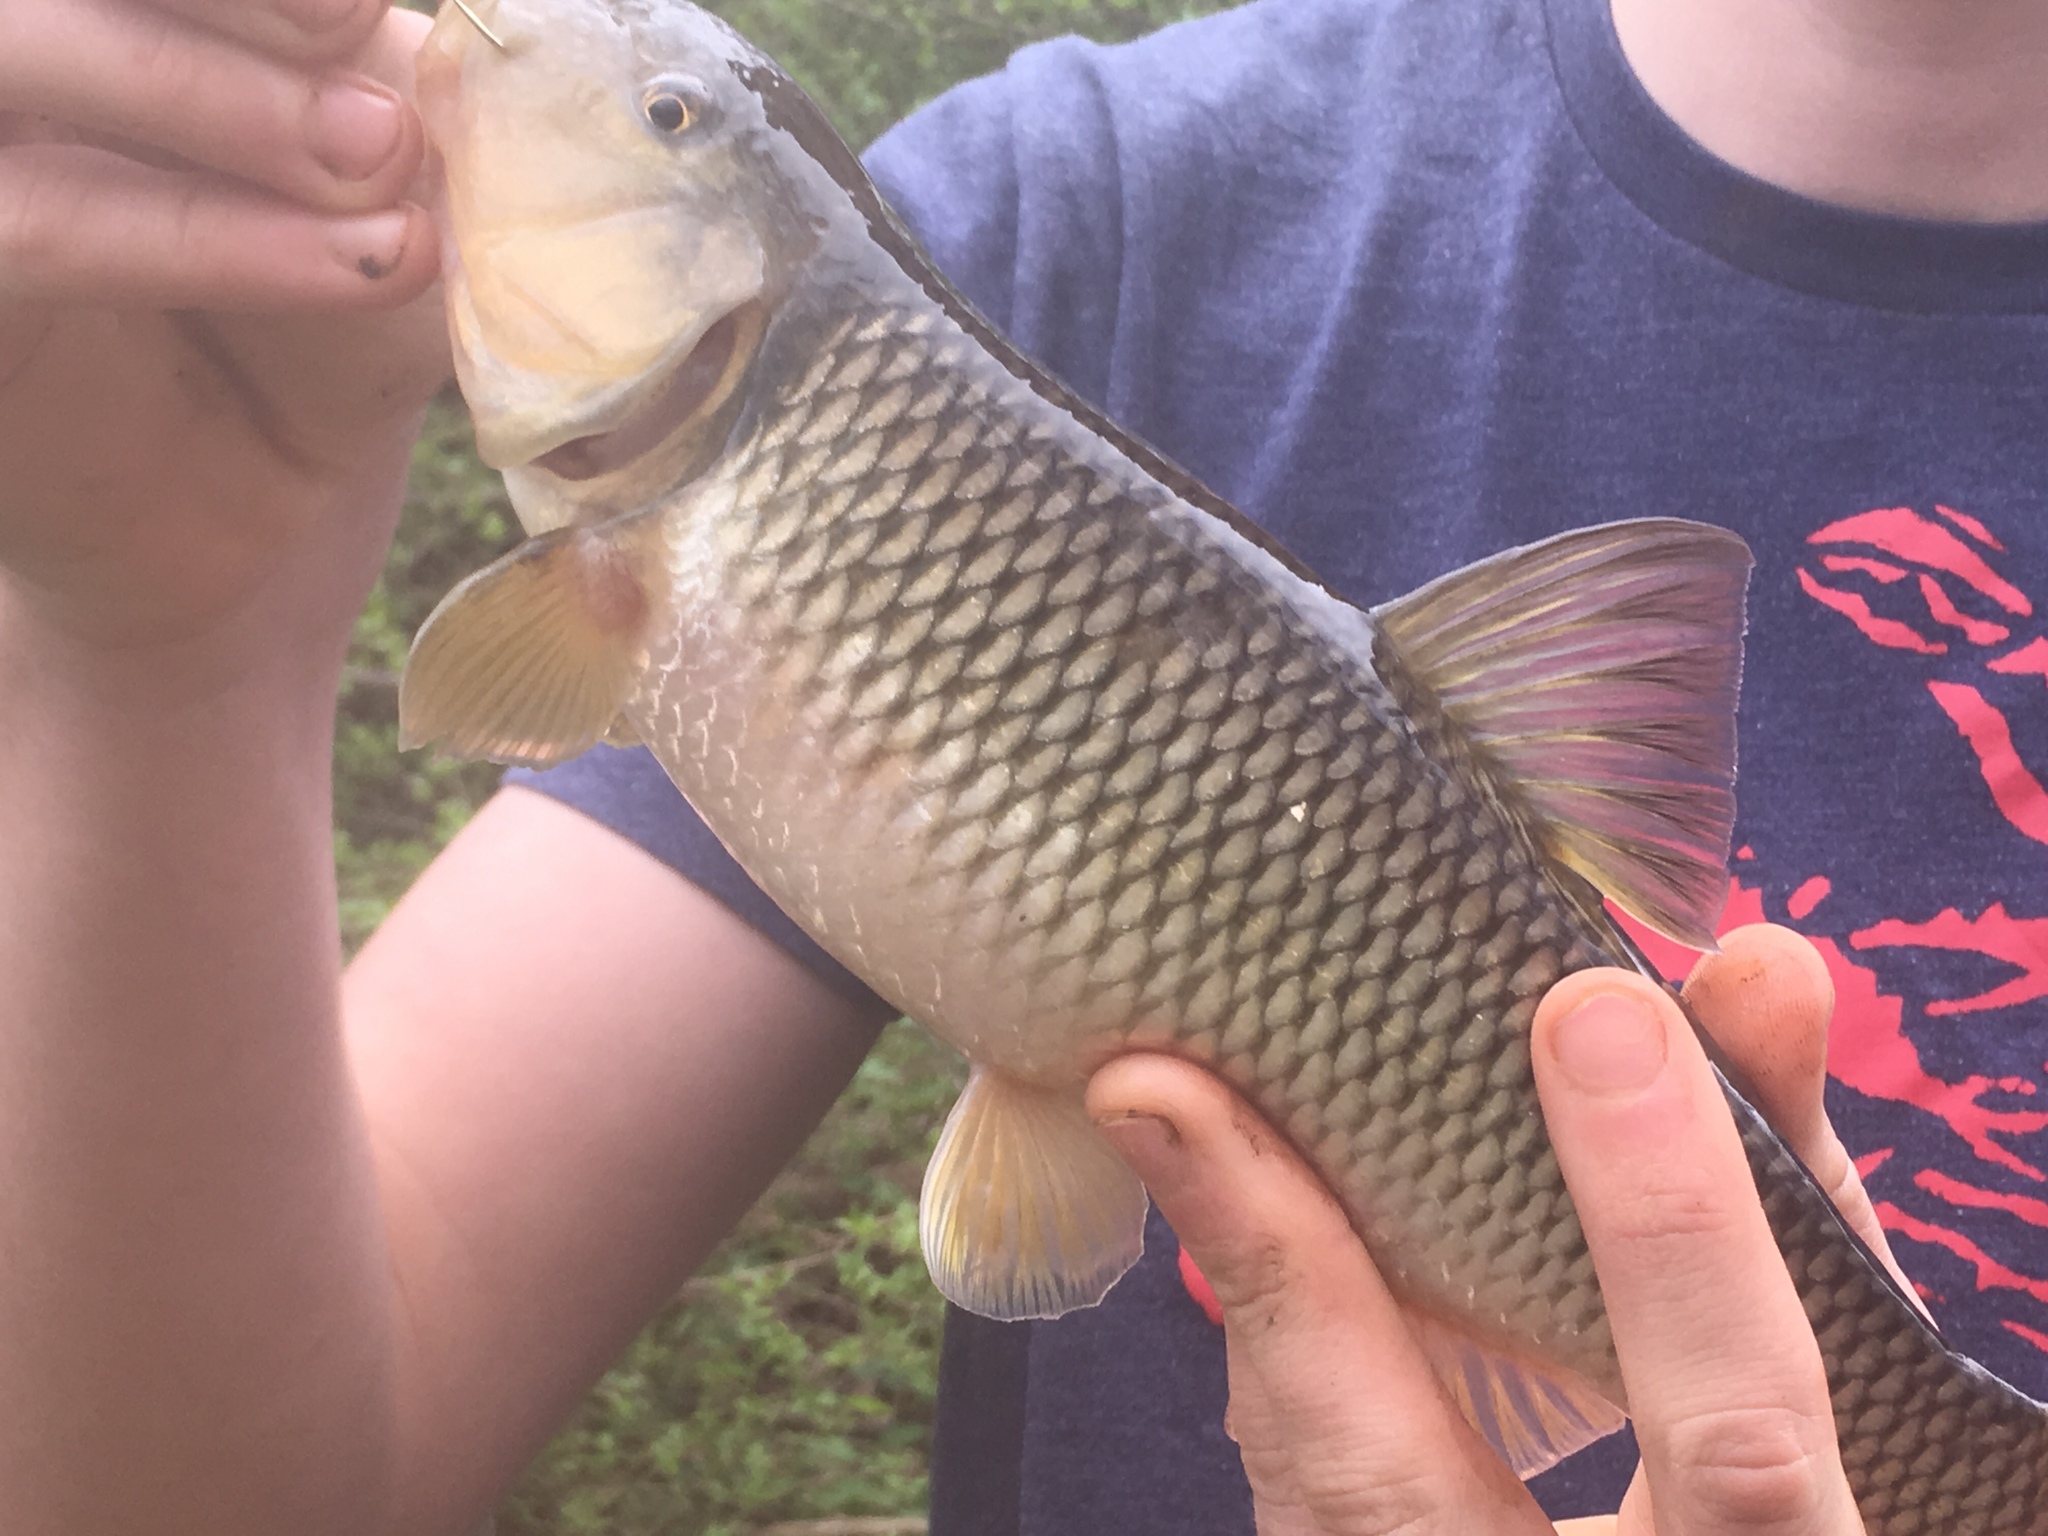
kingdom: Animalia
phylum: Chordata
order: Cypriniformes
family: Cyprinidae
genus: Nocomis
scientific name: Nocomis raneyi
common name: Bull chub
